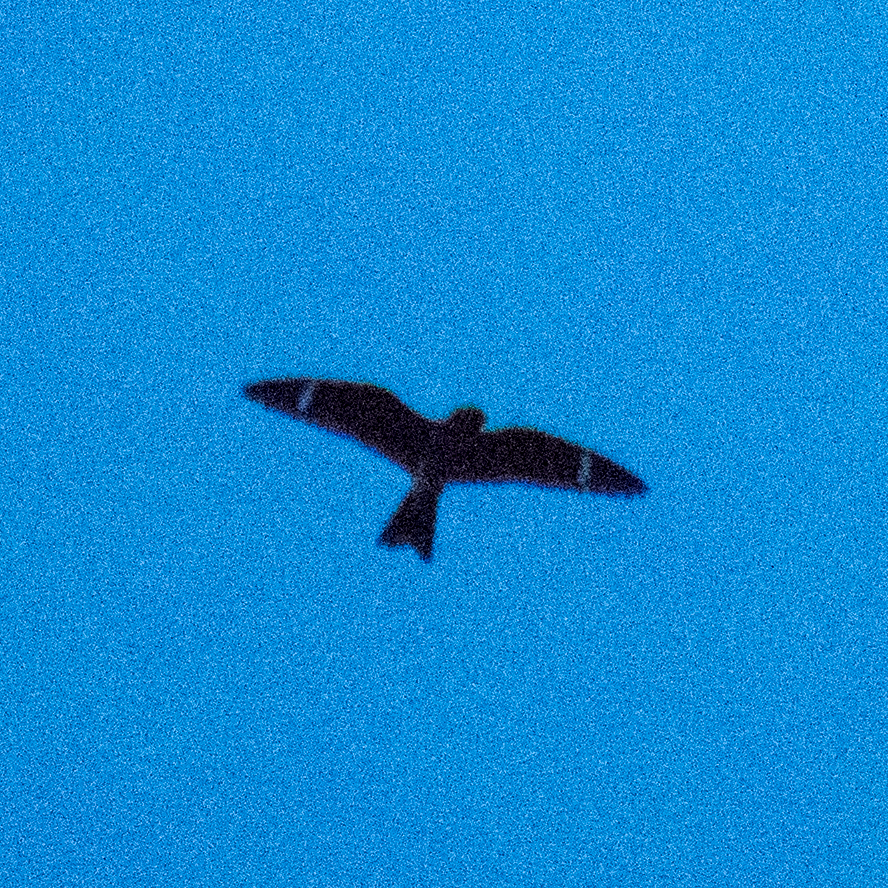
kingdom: Animalia
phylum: Chordata
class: Aves
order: Caprimulgiformes
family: Caprimulgidae
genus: Chordeiles
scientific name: Chordeiles minor
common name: Common nighthawk
